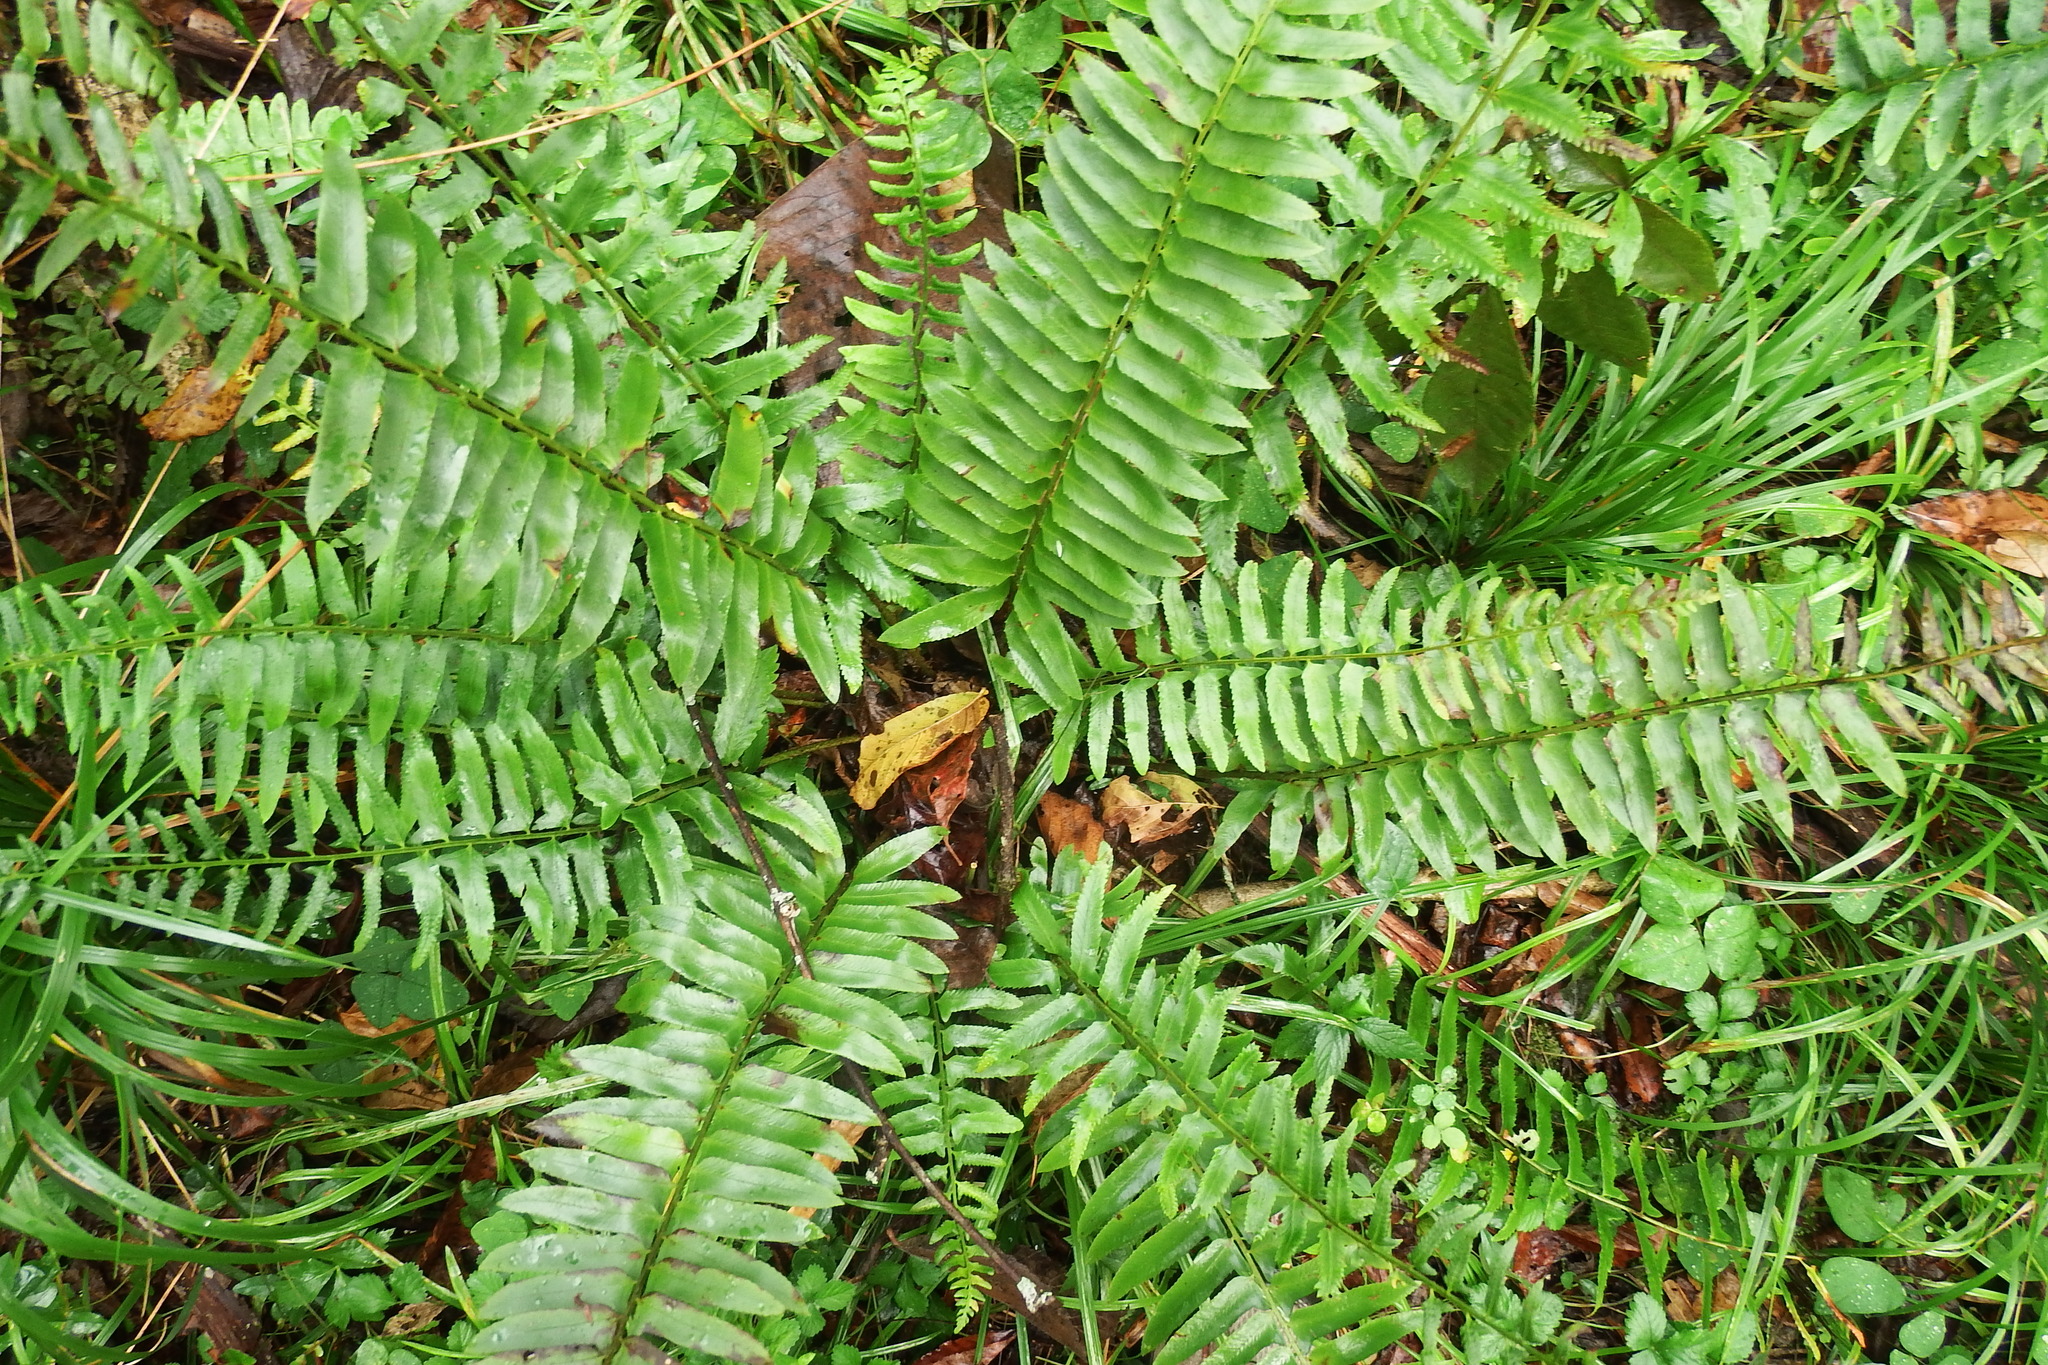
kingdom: Plantae
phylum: Tracheophyta
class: Polypodiopsida
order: Polypodiales
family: Dryopteridaceae
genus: Polystichum
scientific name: Polystichum acrostichoides
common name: Christmas fern
